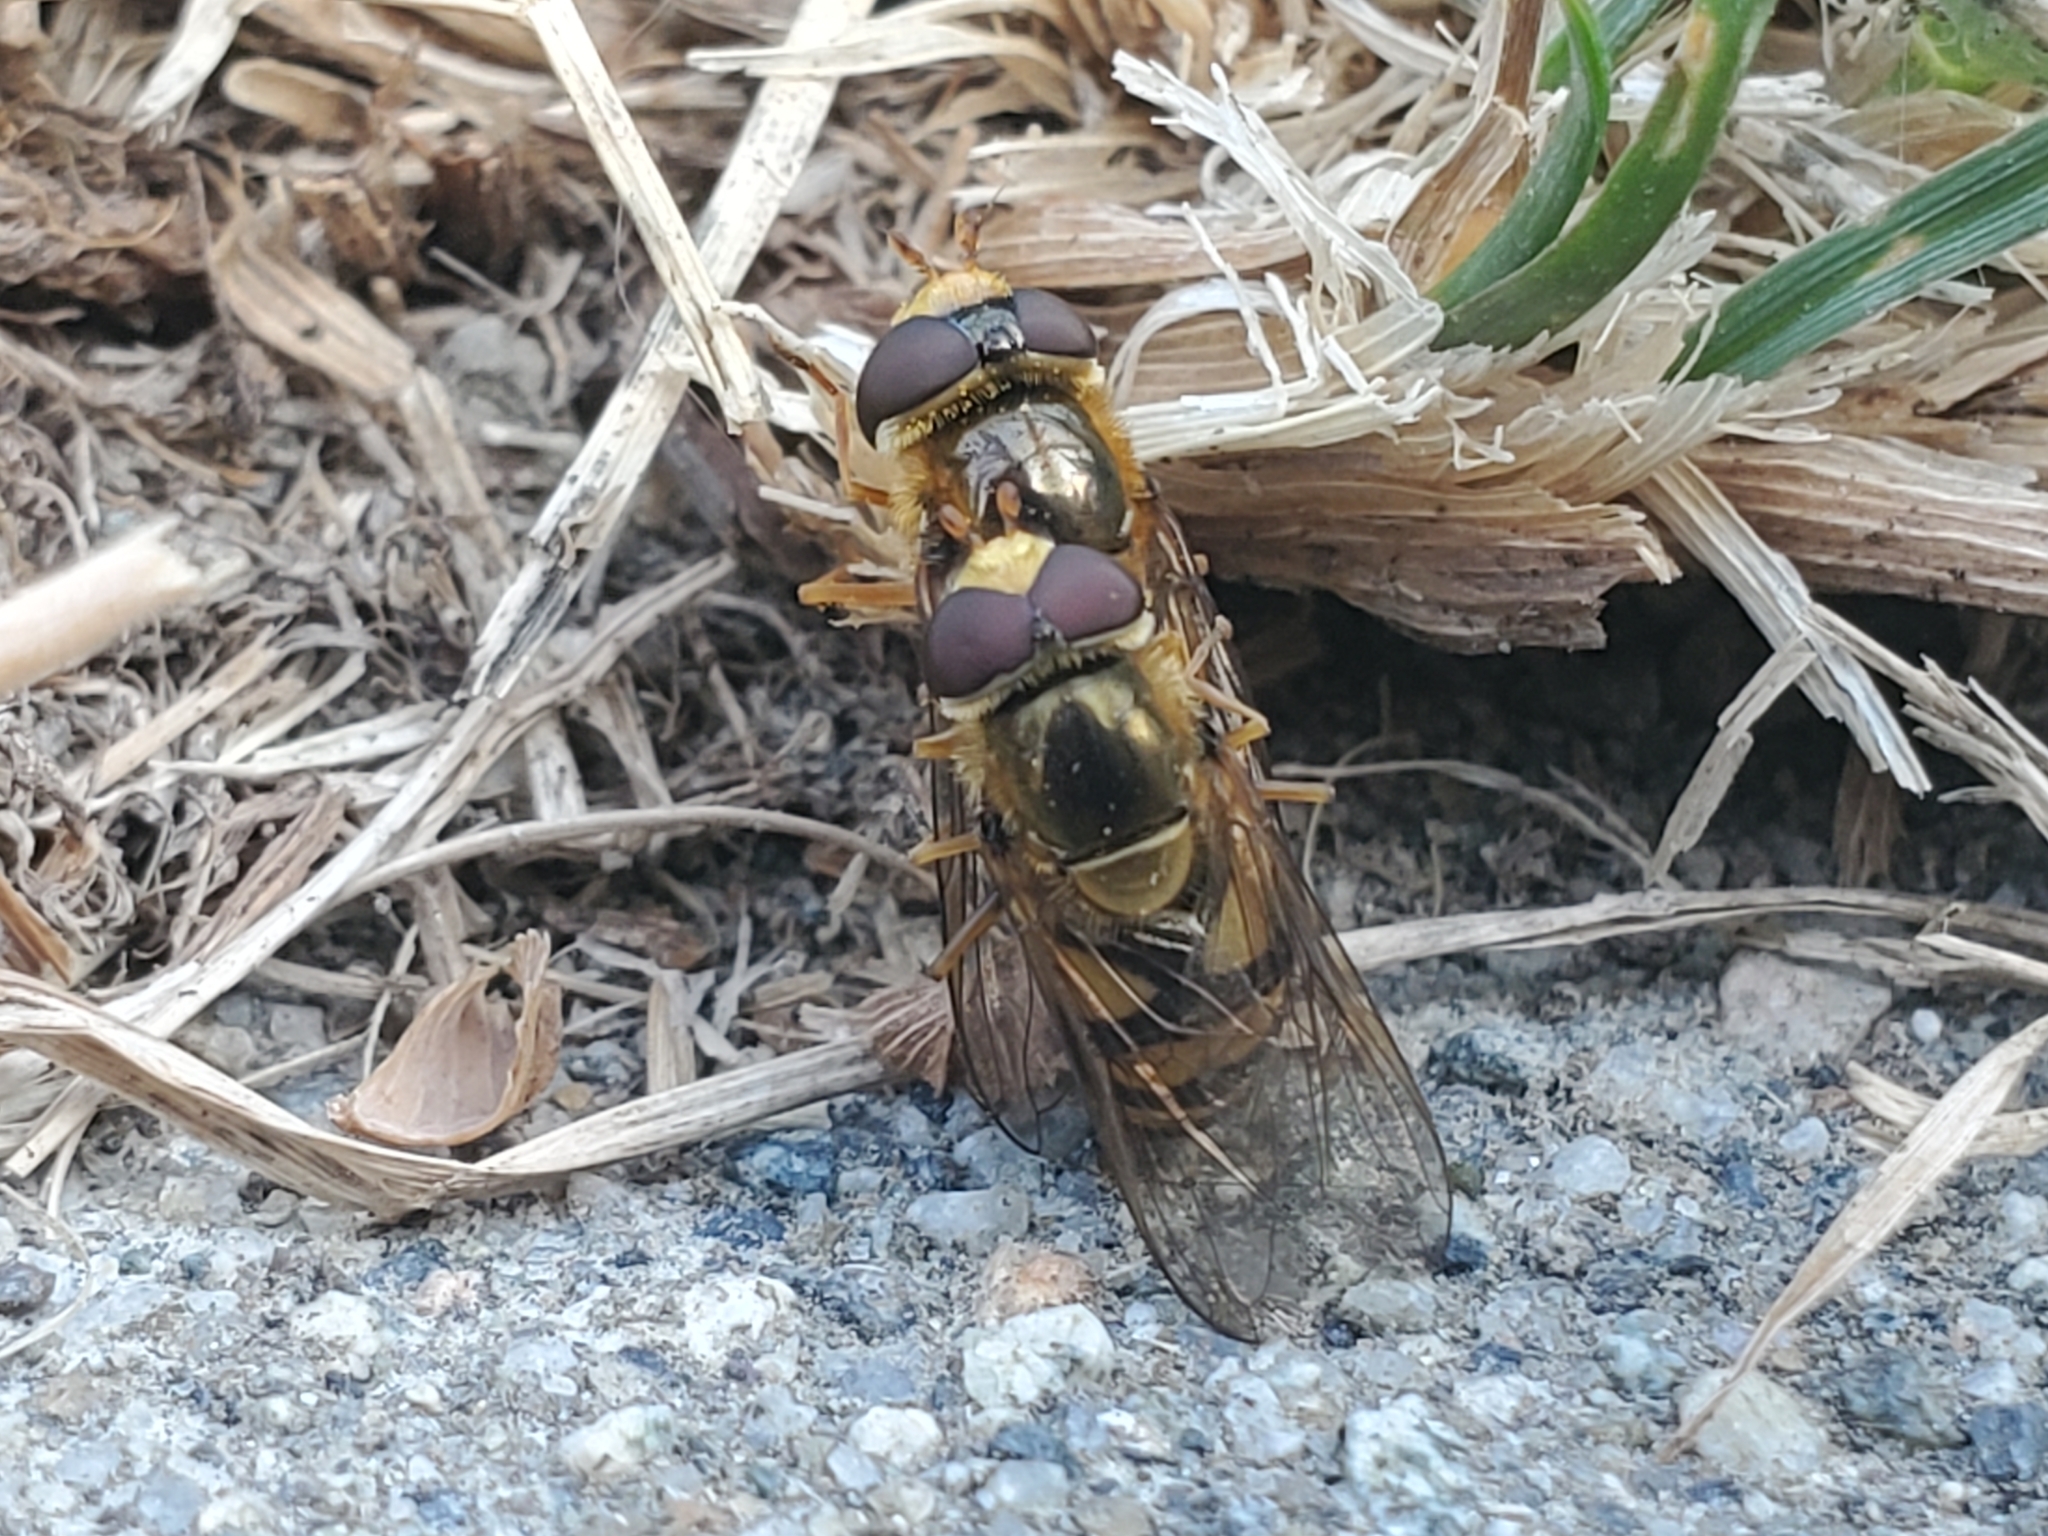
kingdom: Animalia
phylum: Arthropoda
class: Insecta
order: Diptera
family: Syrphidae
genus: Eupeodes
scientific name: Eupeodes latifasciatus
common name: Variable aphideater
